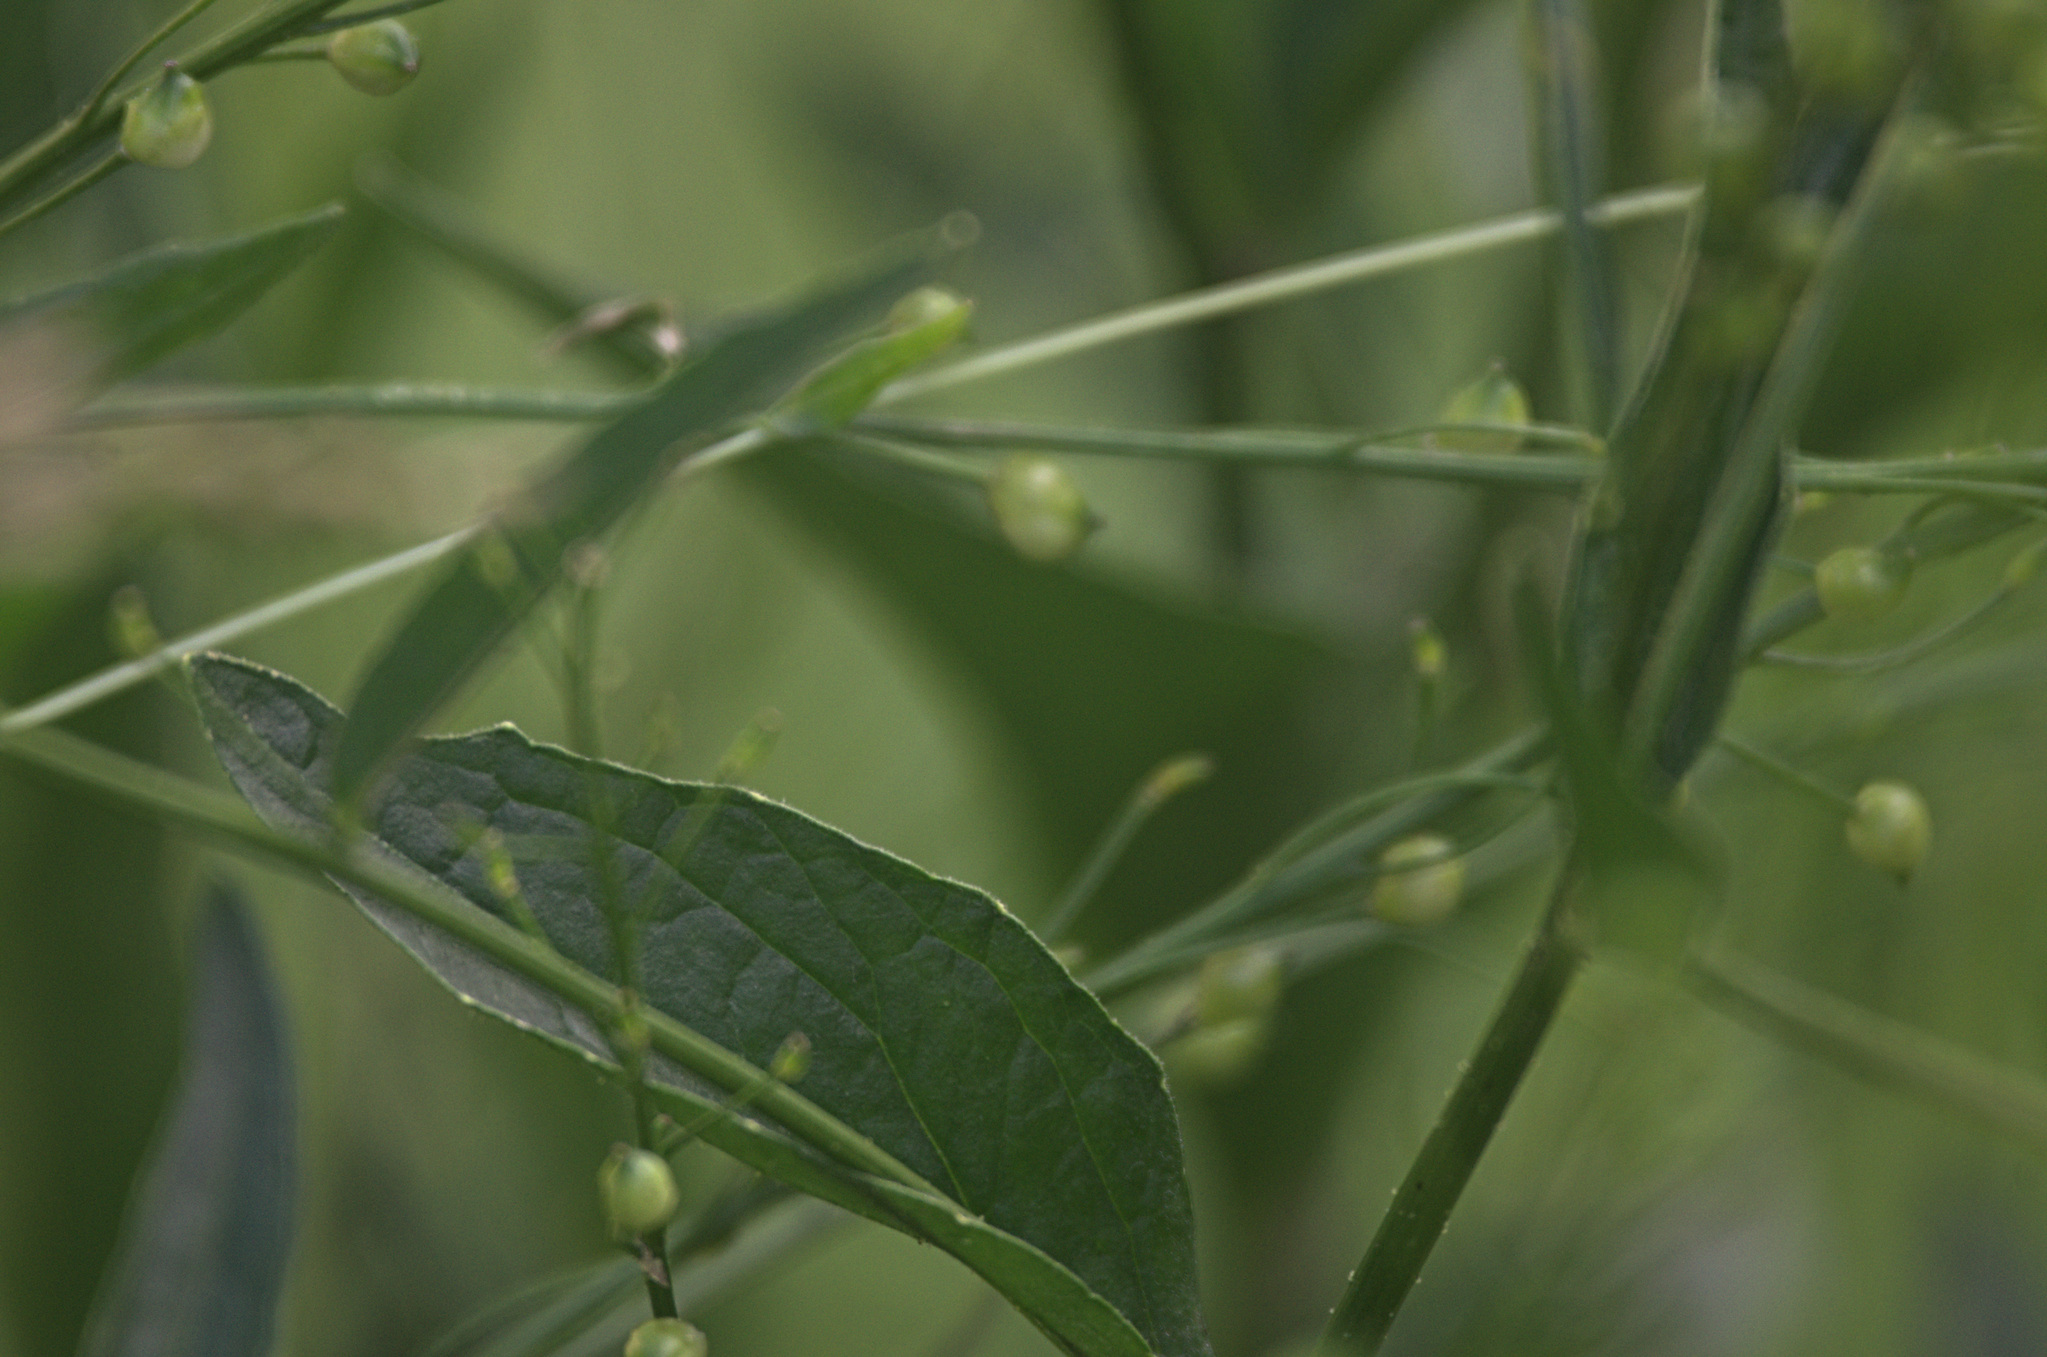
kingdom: Plantae
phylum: Tracheophyta
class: Magnoliopsida
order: Brassicales
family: Brassicaceae
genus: Bunias
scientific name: Bunias orientalis
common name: Warty-cabbage
